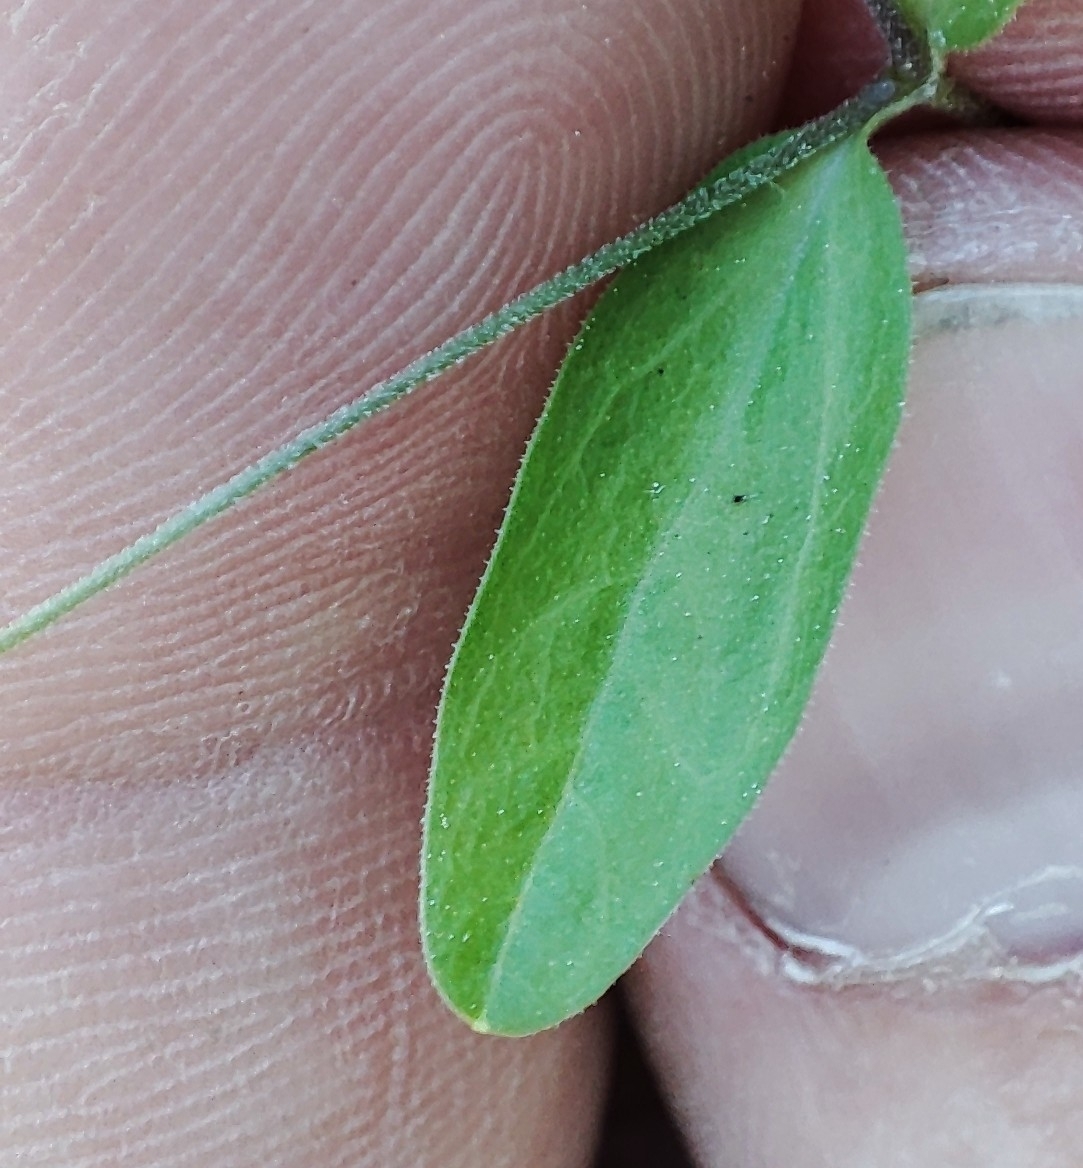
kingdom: Plantae
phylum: Tracheophyta
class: Magnoliopsida
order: Caryophyllales
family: Caryophyllaceae
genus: Moehringia
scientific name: Moehringia lateriflora
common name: Blunt-leaved sandwort
